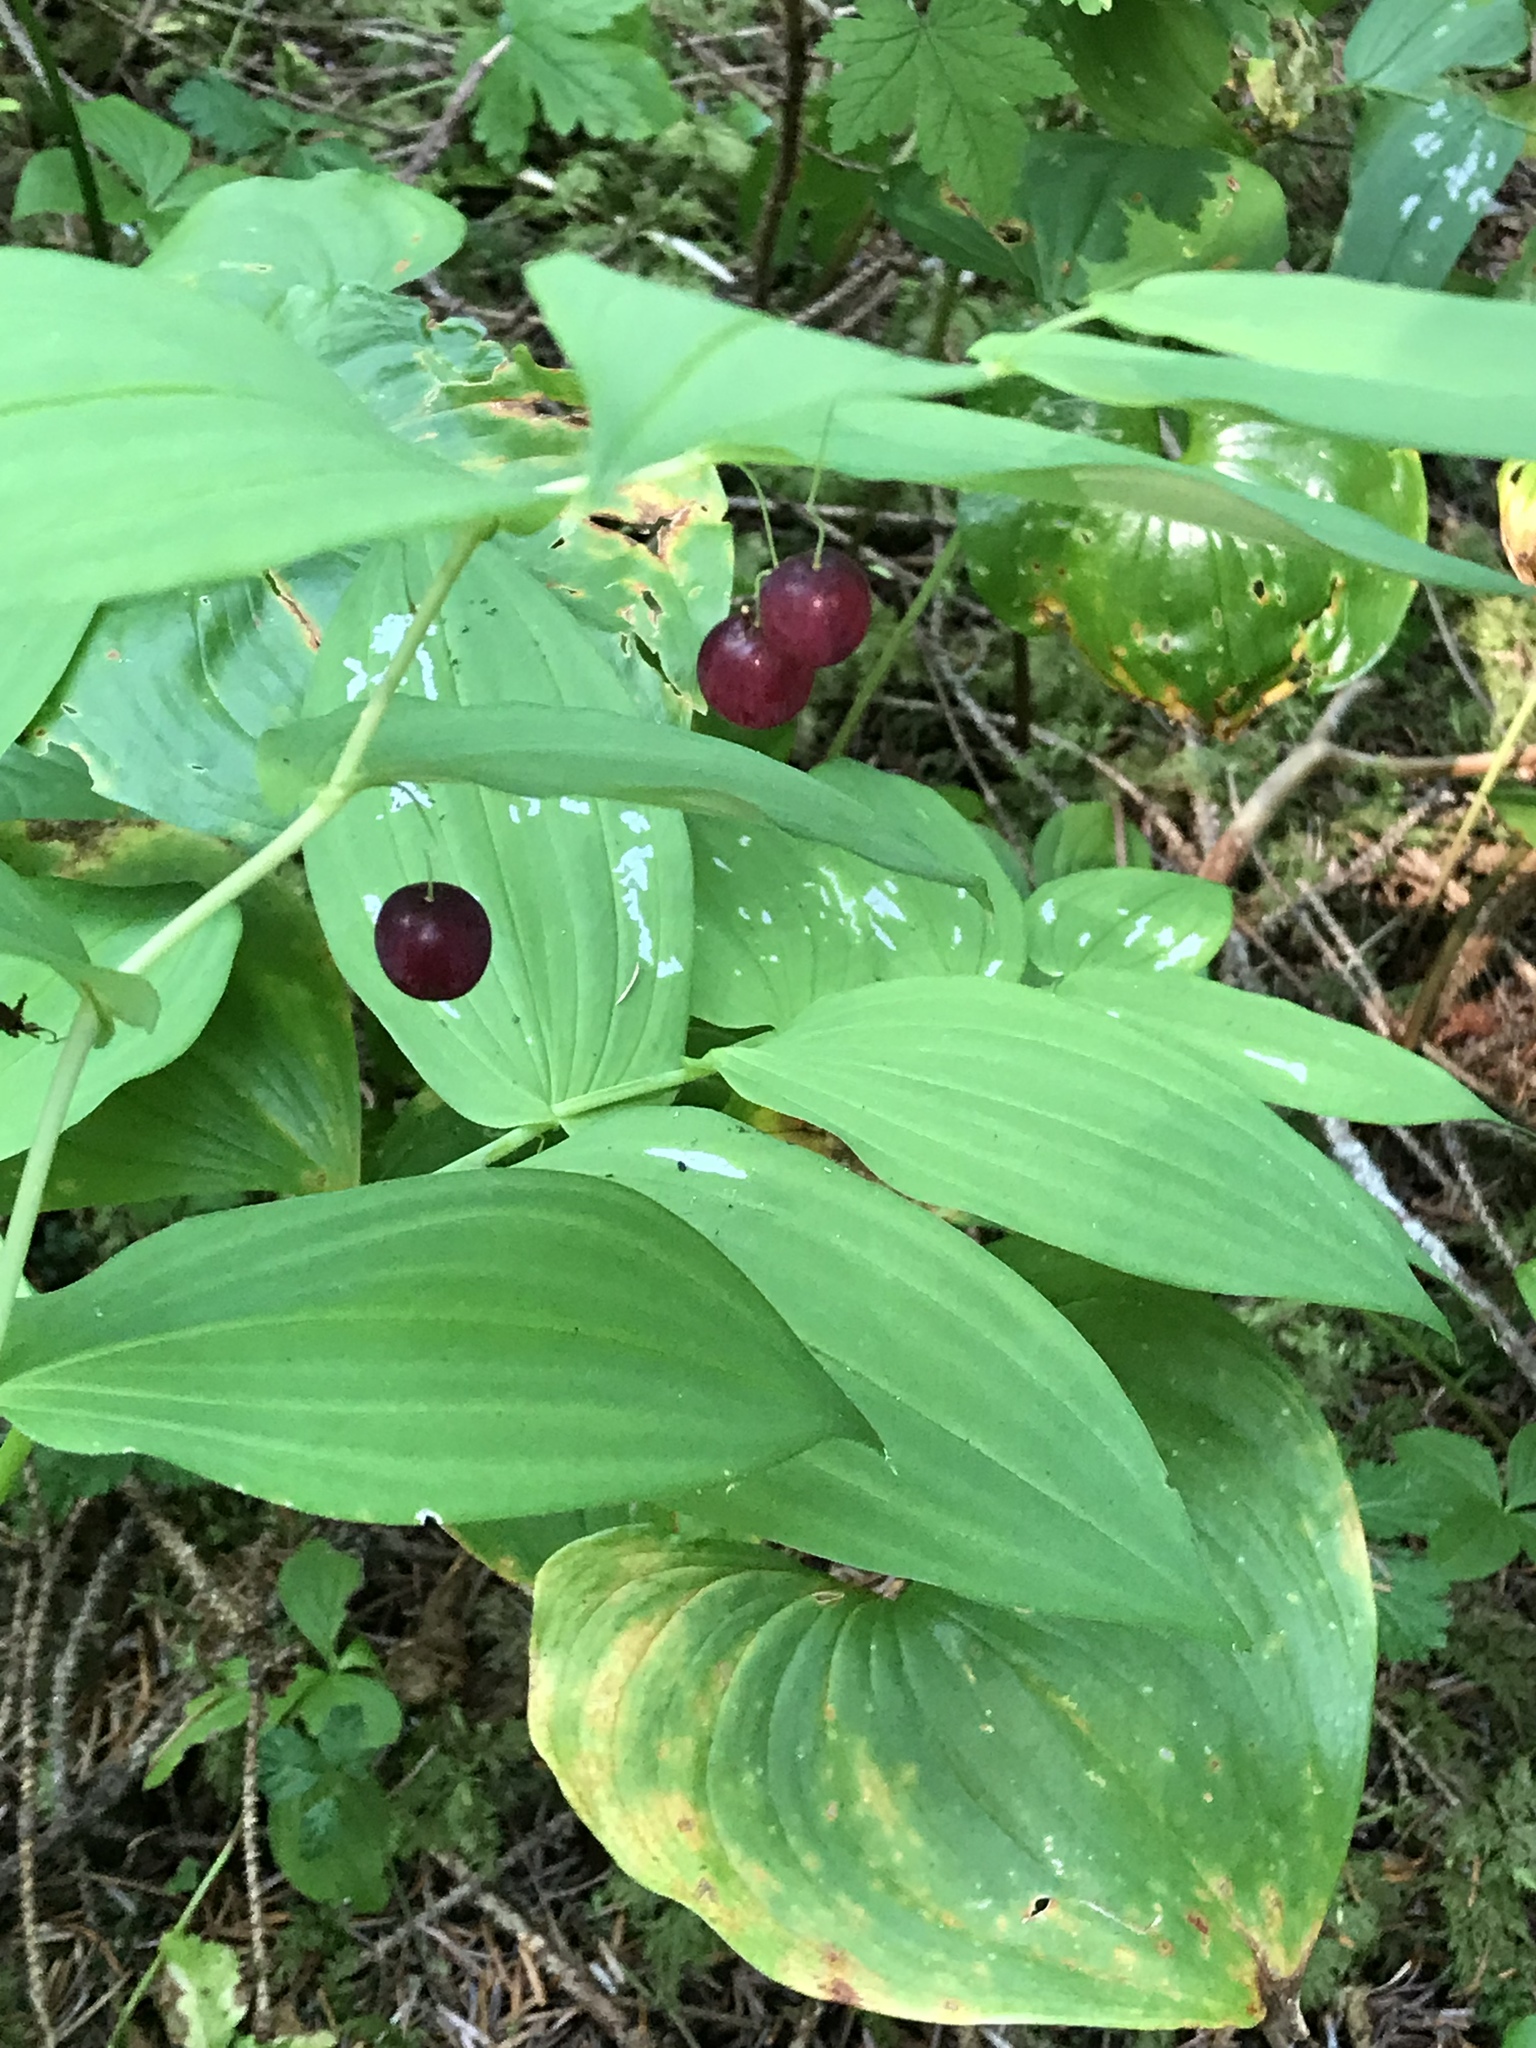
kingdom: Plantae
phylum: Tracheophyta
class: Liliopsida
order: Liliales
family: Liliaceae
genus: Streptopus
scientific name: Streptopus amplexifolius
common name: Clasp twisted stalk
